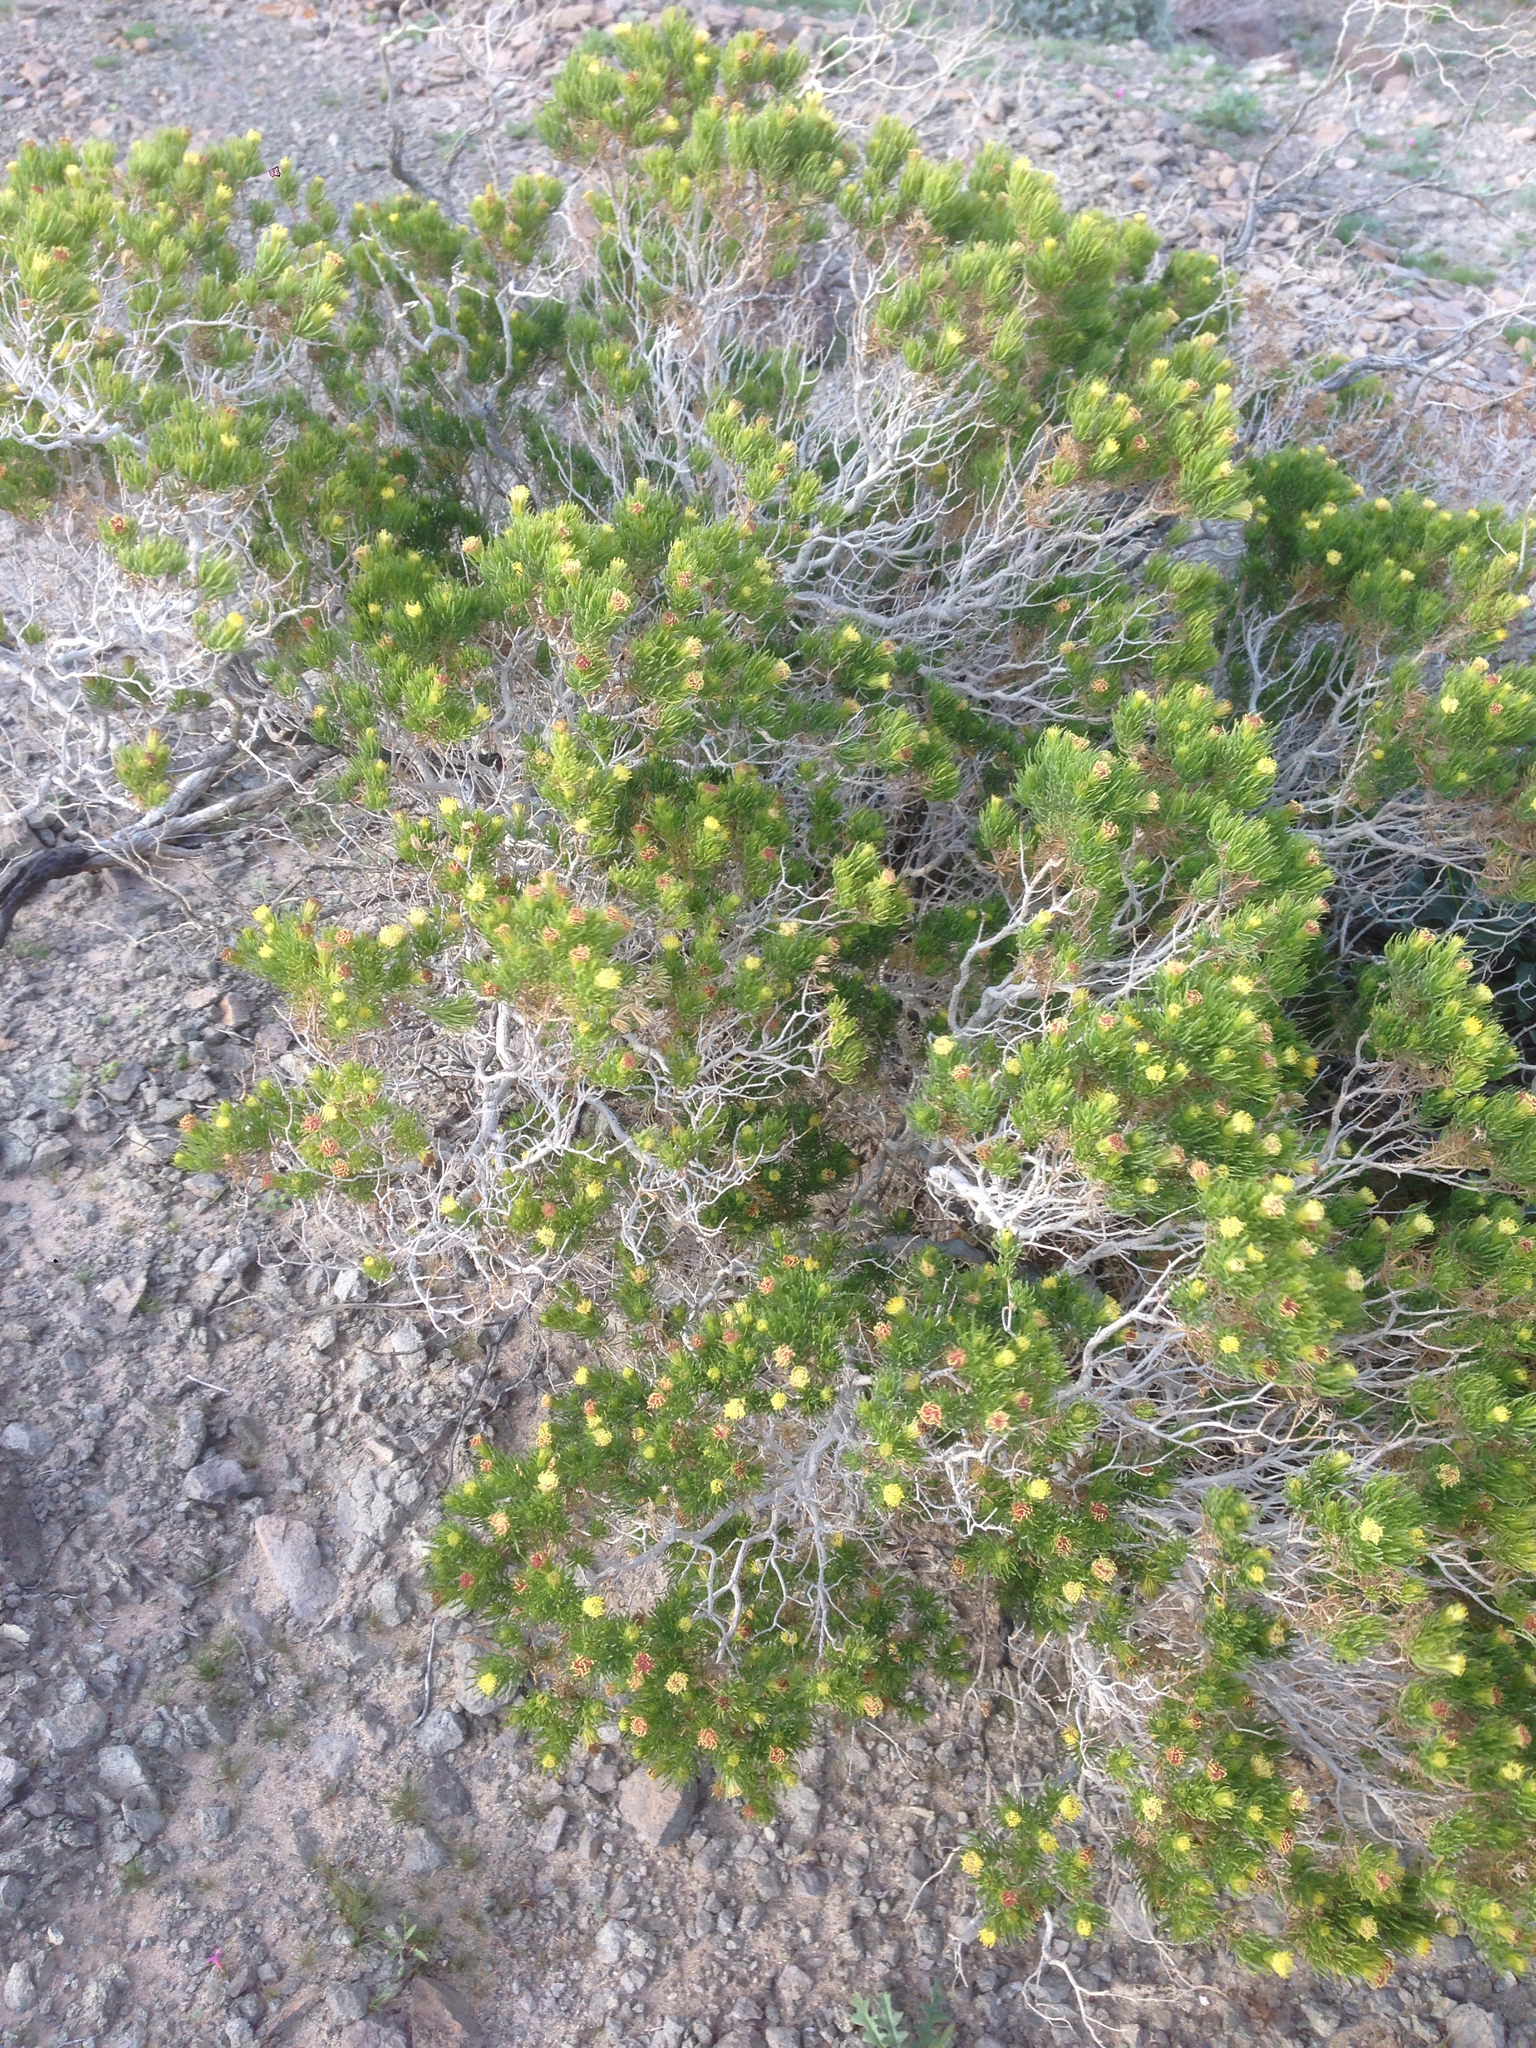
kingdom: Plantae
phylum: Tracheophyta
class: Magnoliopsida
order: Asterales
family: Asteraceae
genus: Peucephyllum
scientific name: Peucephyllum schottii
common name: Pygmy-cedar
